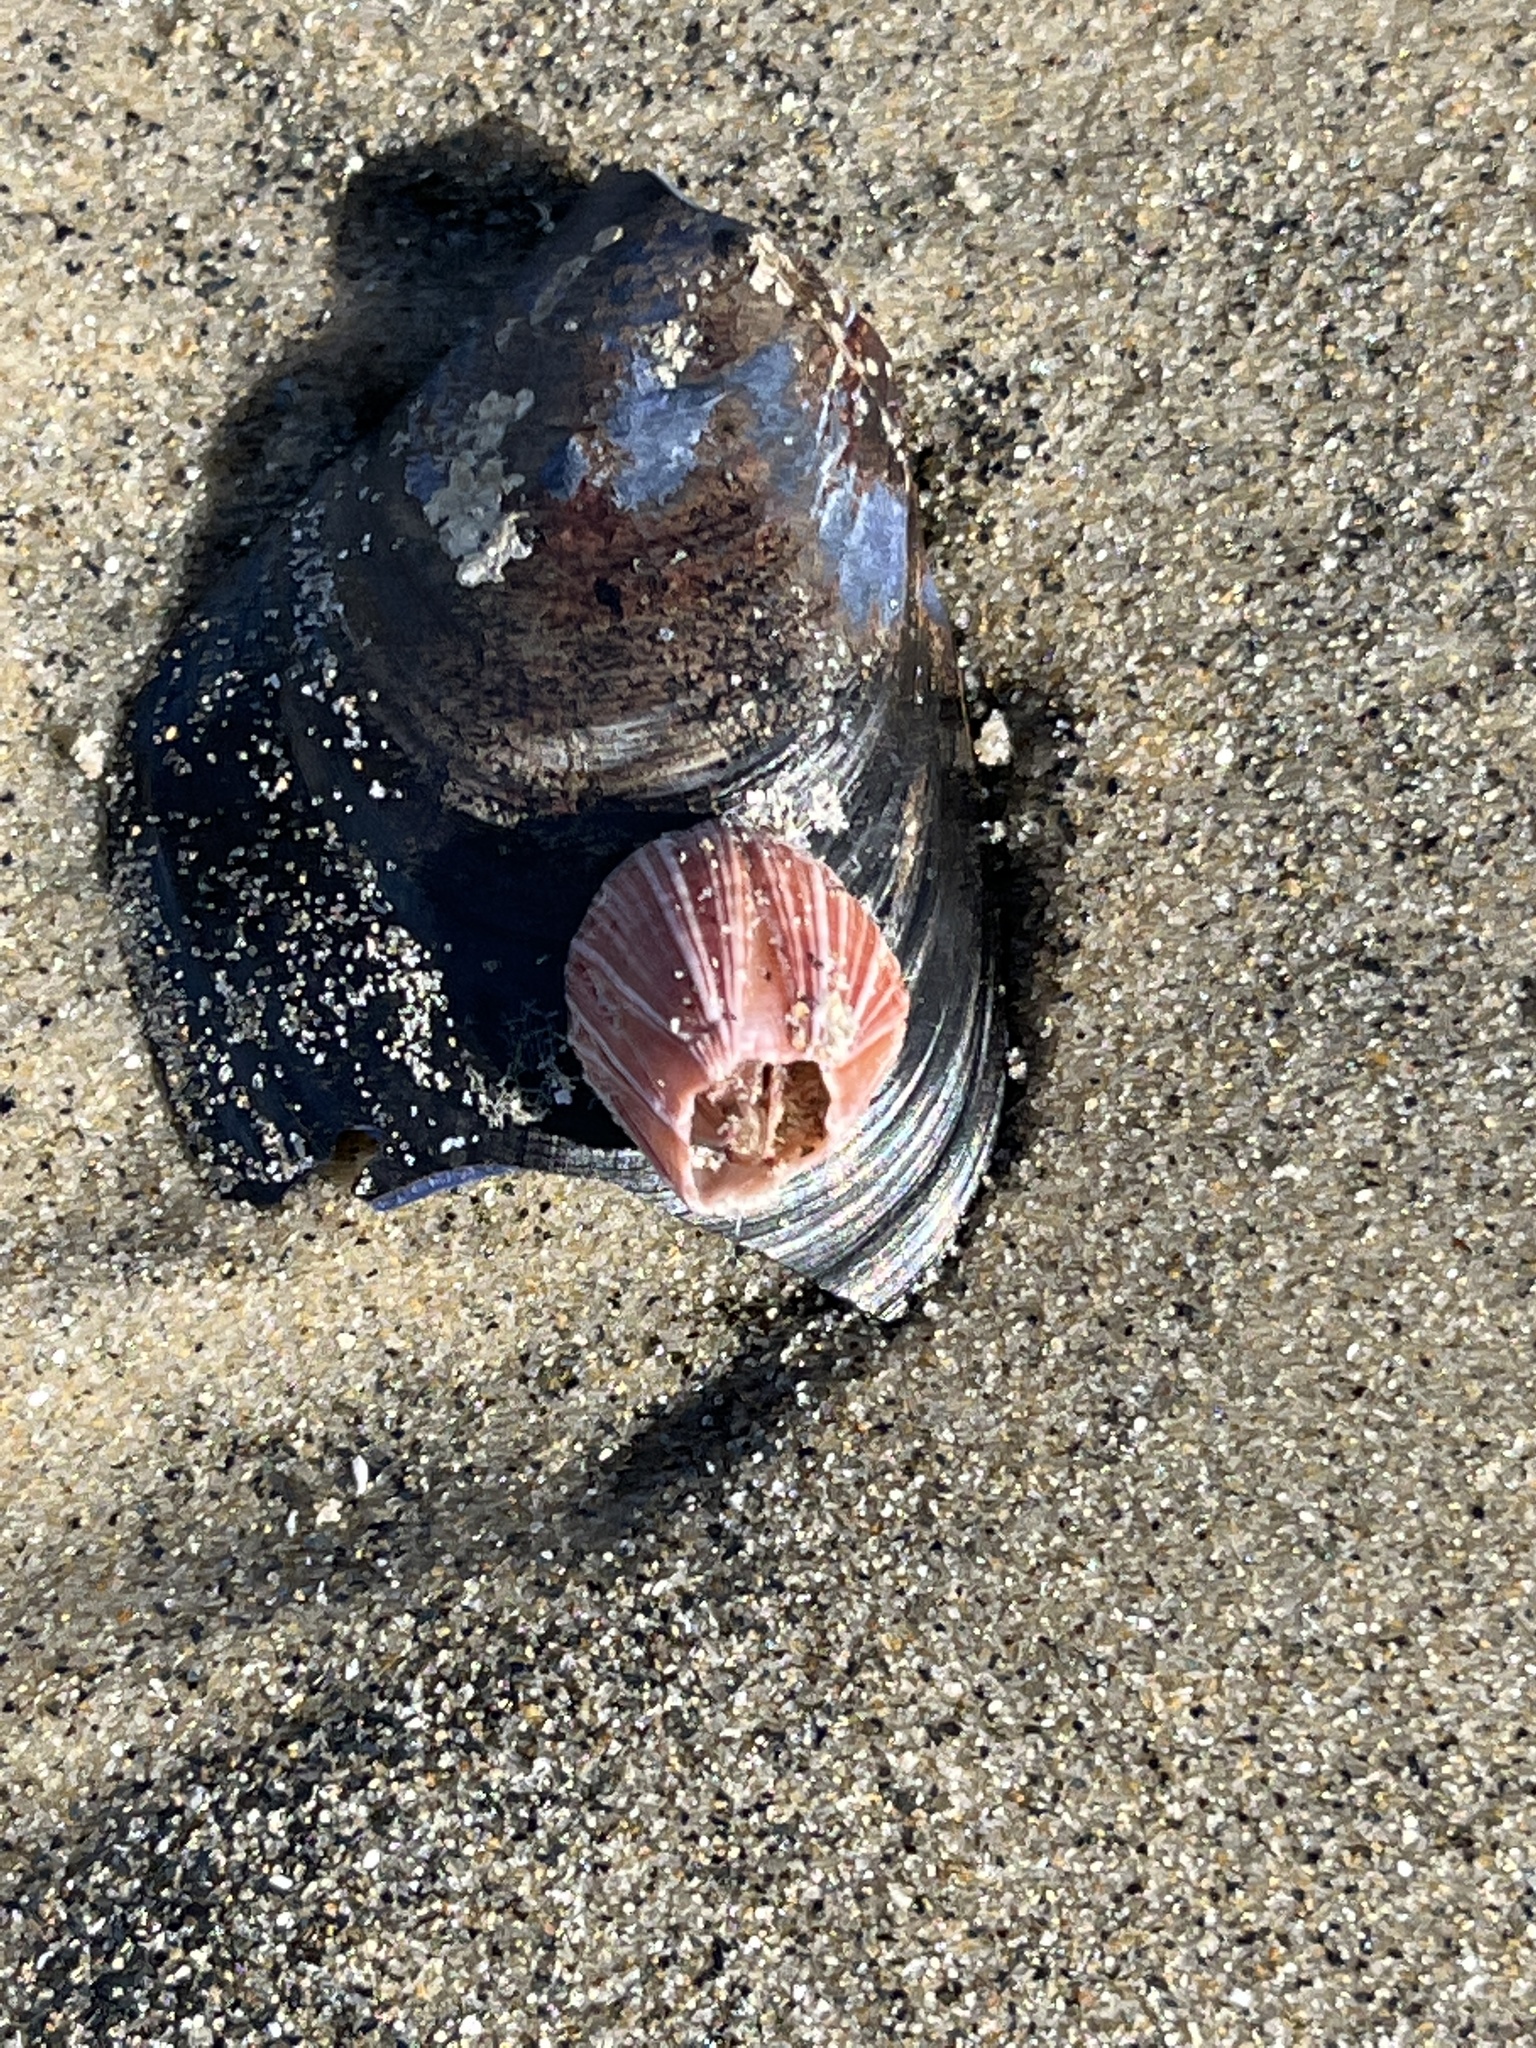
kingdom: Animalia
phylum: Arthropoda
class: Maxillopoda
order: Sessilia
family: Balanidae
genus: Megabalanus
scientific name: Megabalanus californicus
